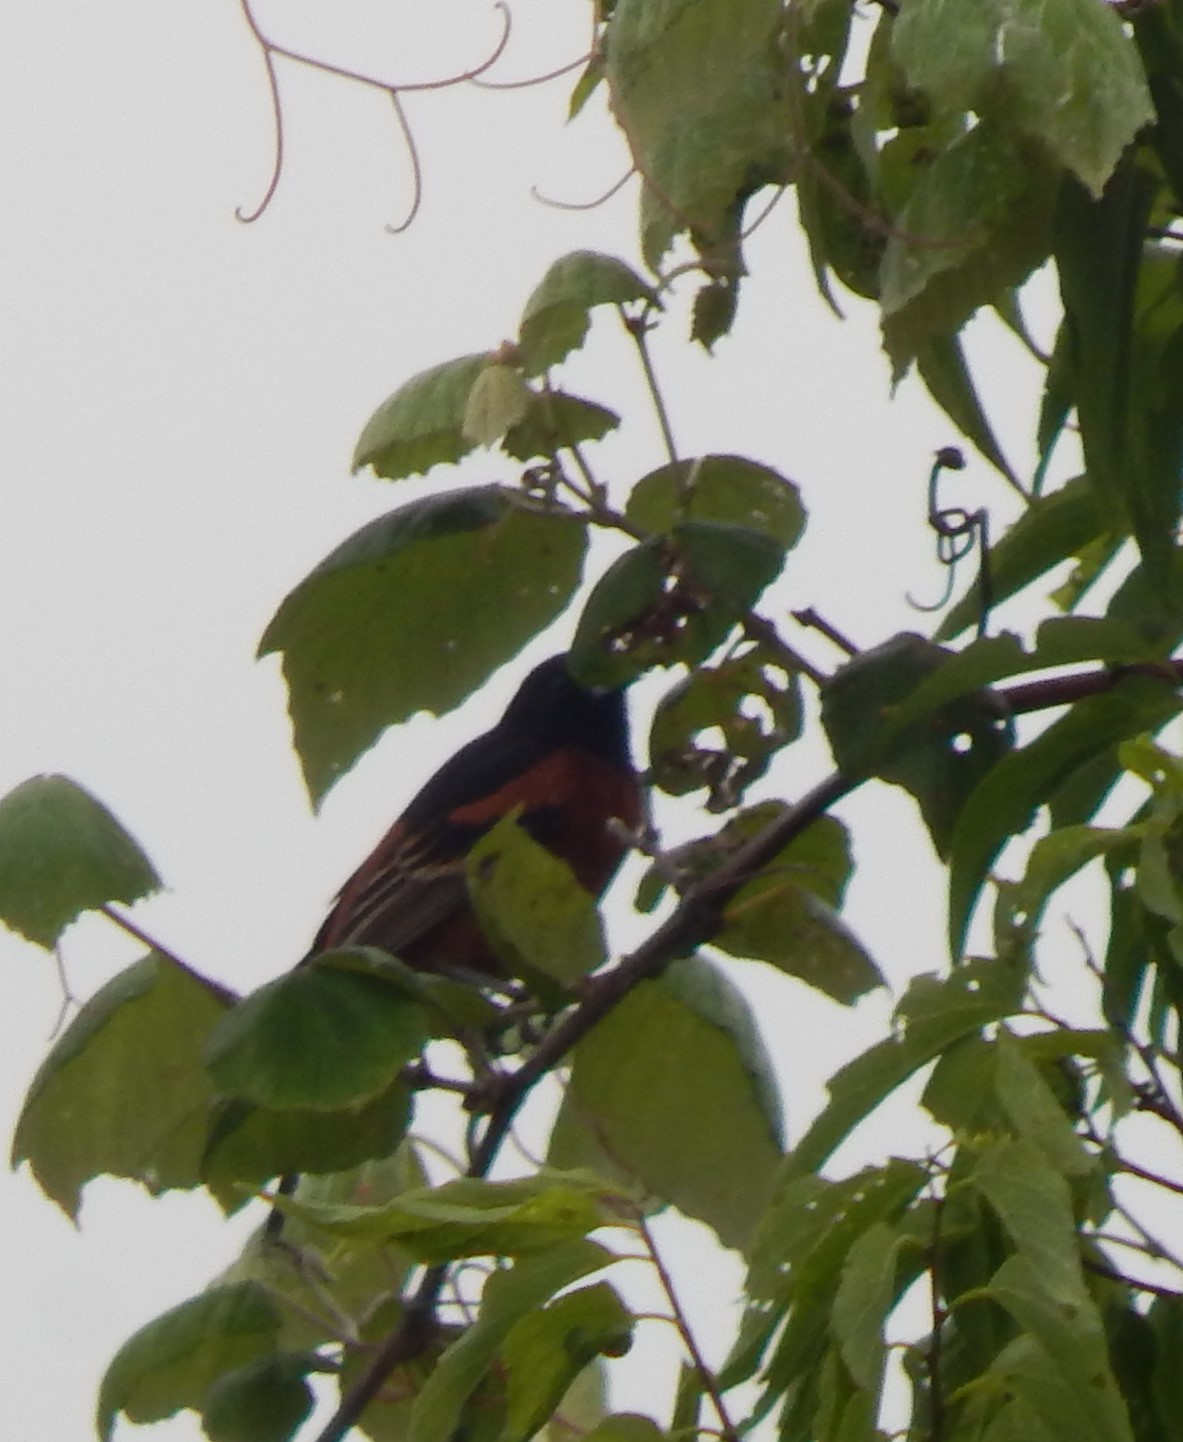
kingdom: Animalia
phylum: Chordata
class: Aves
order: Passeriformes
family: Icteridae
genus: Icterus
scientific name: Icterus spurius
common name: Orchard oriole
